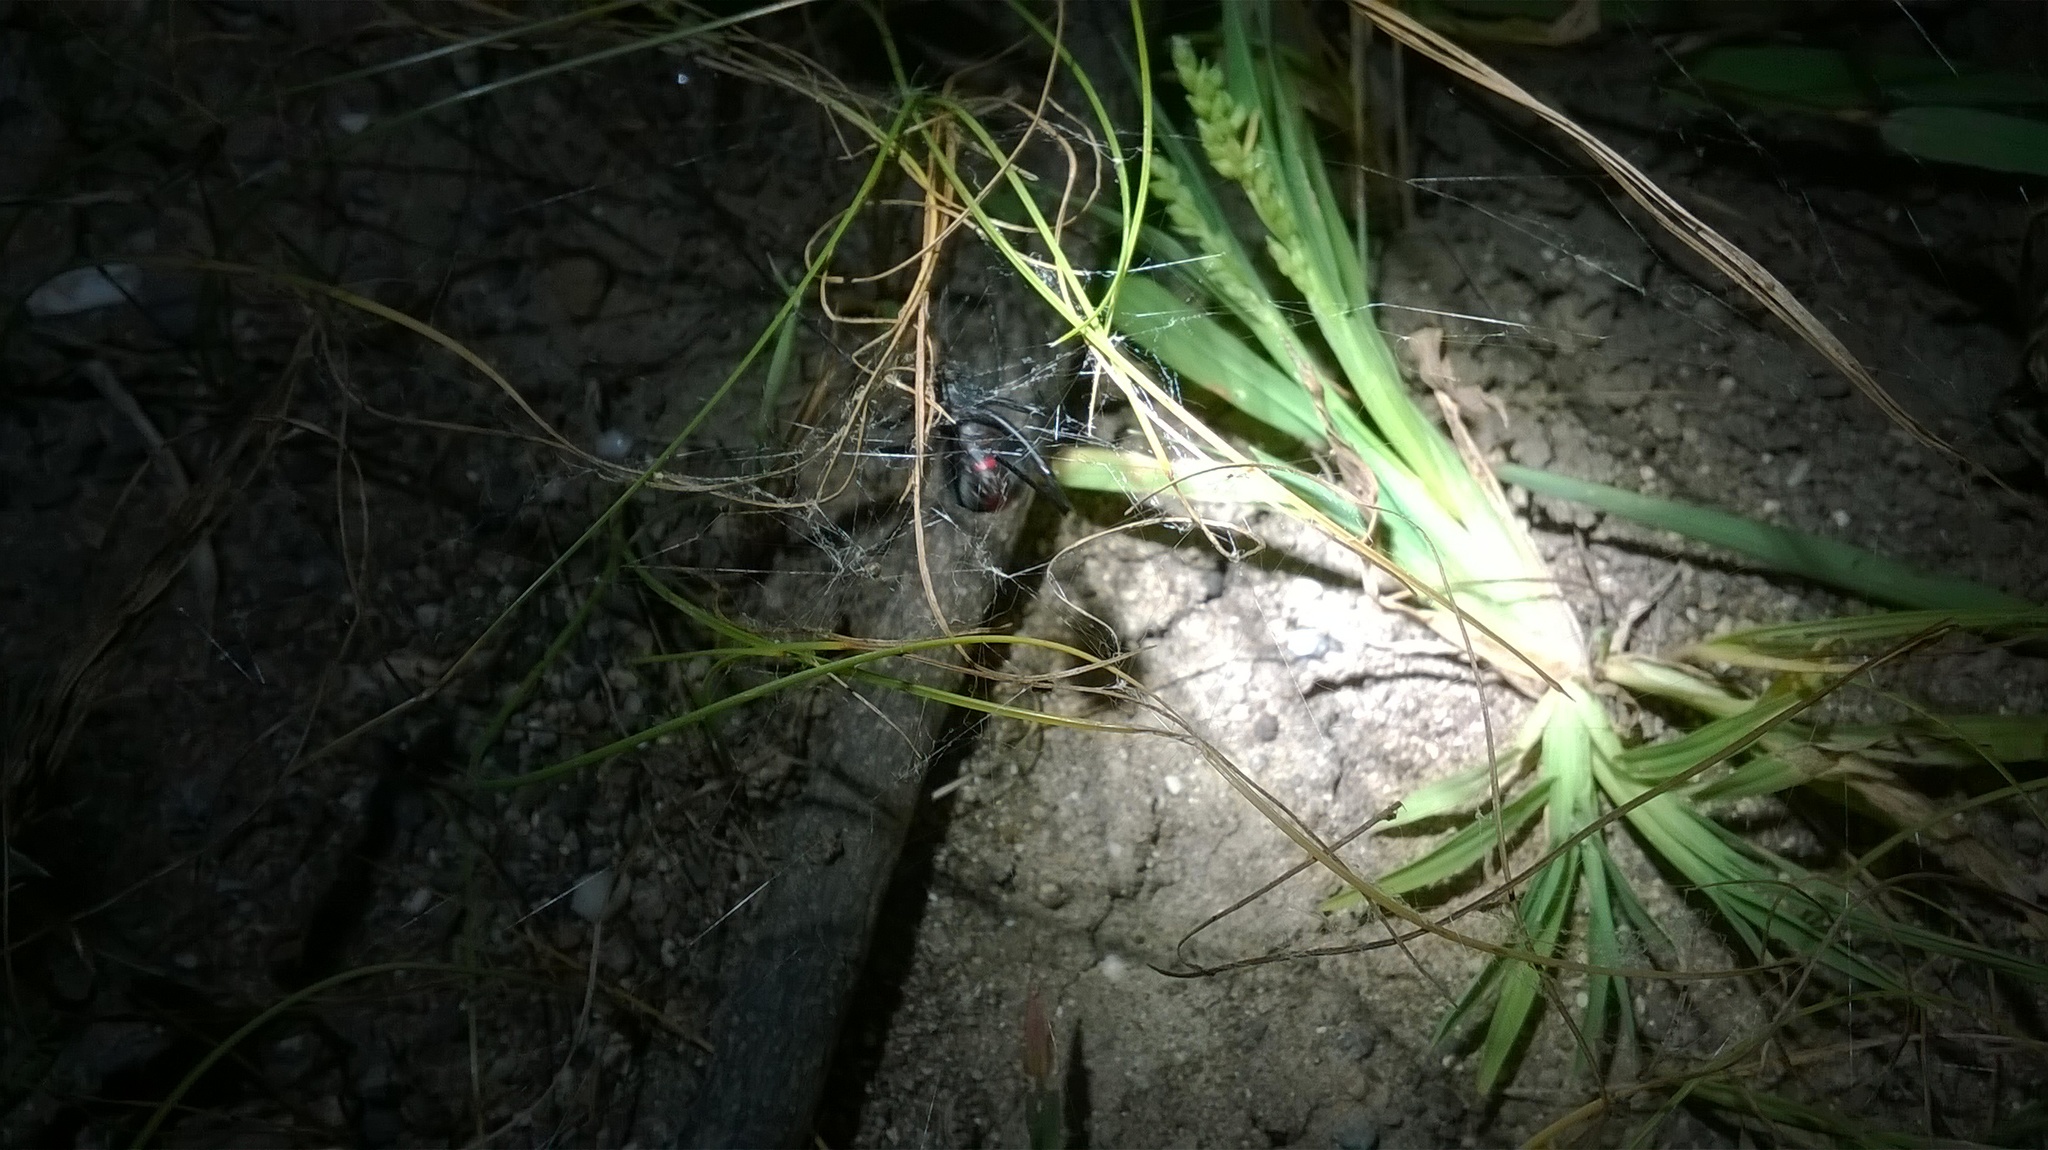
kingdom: Animalia
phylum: Arthropoda
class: Arachnida
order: Araneae
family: Theridiidae
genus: Latrodectus
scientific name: Latrodectus erythromelas
